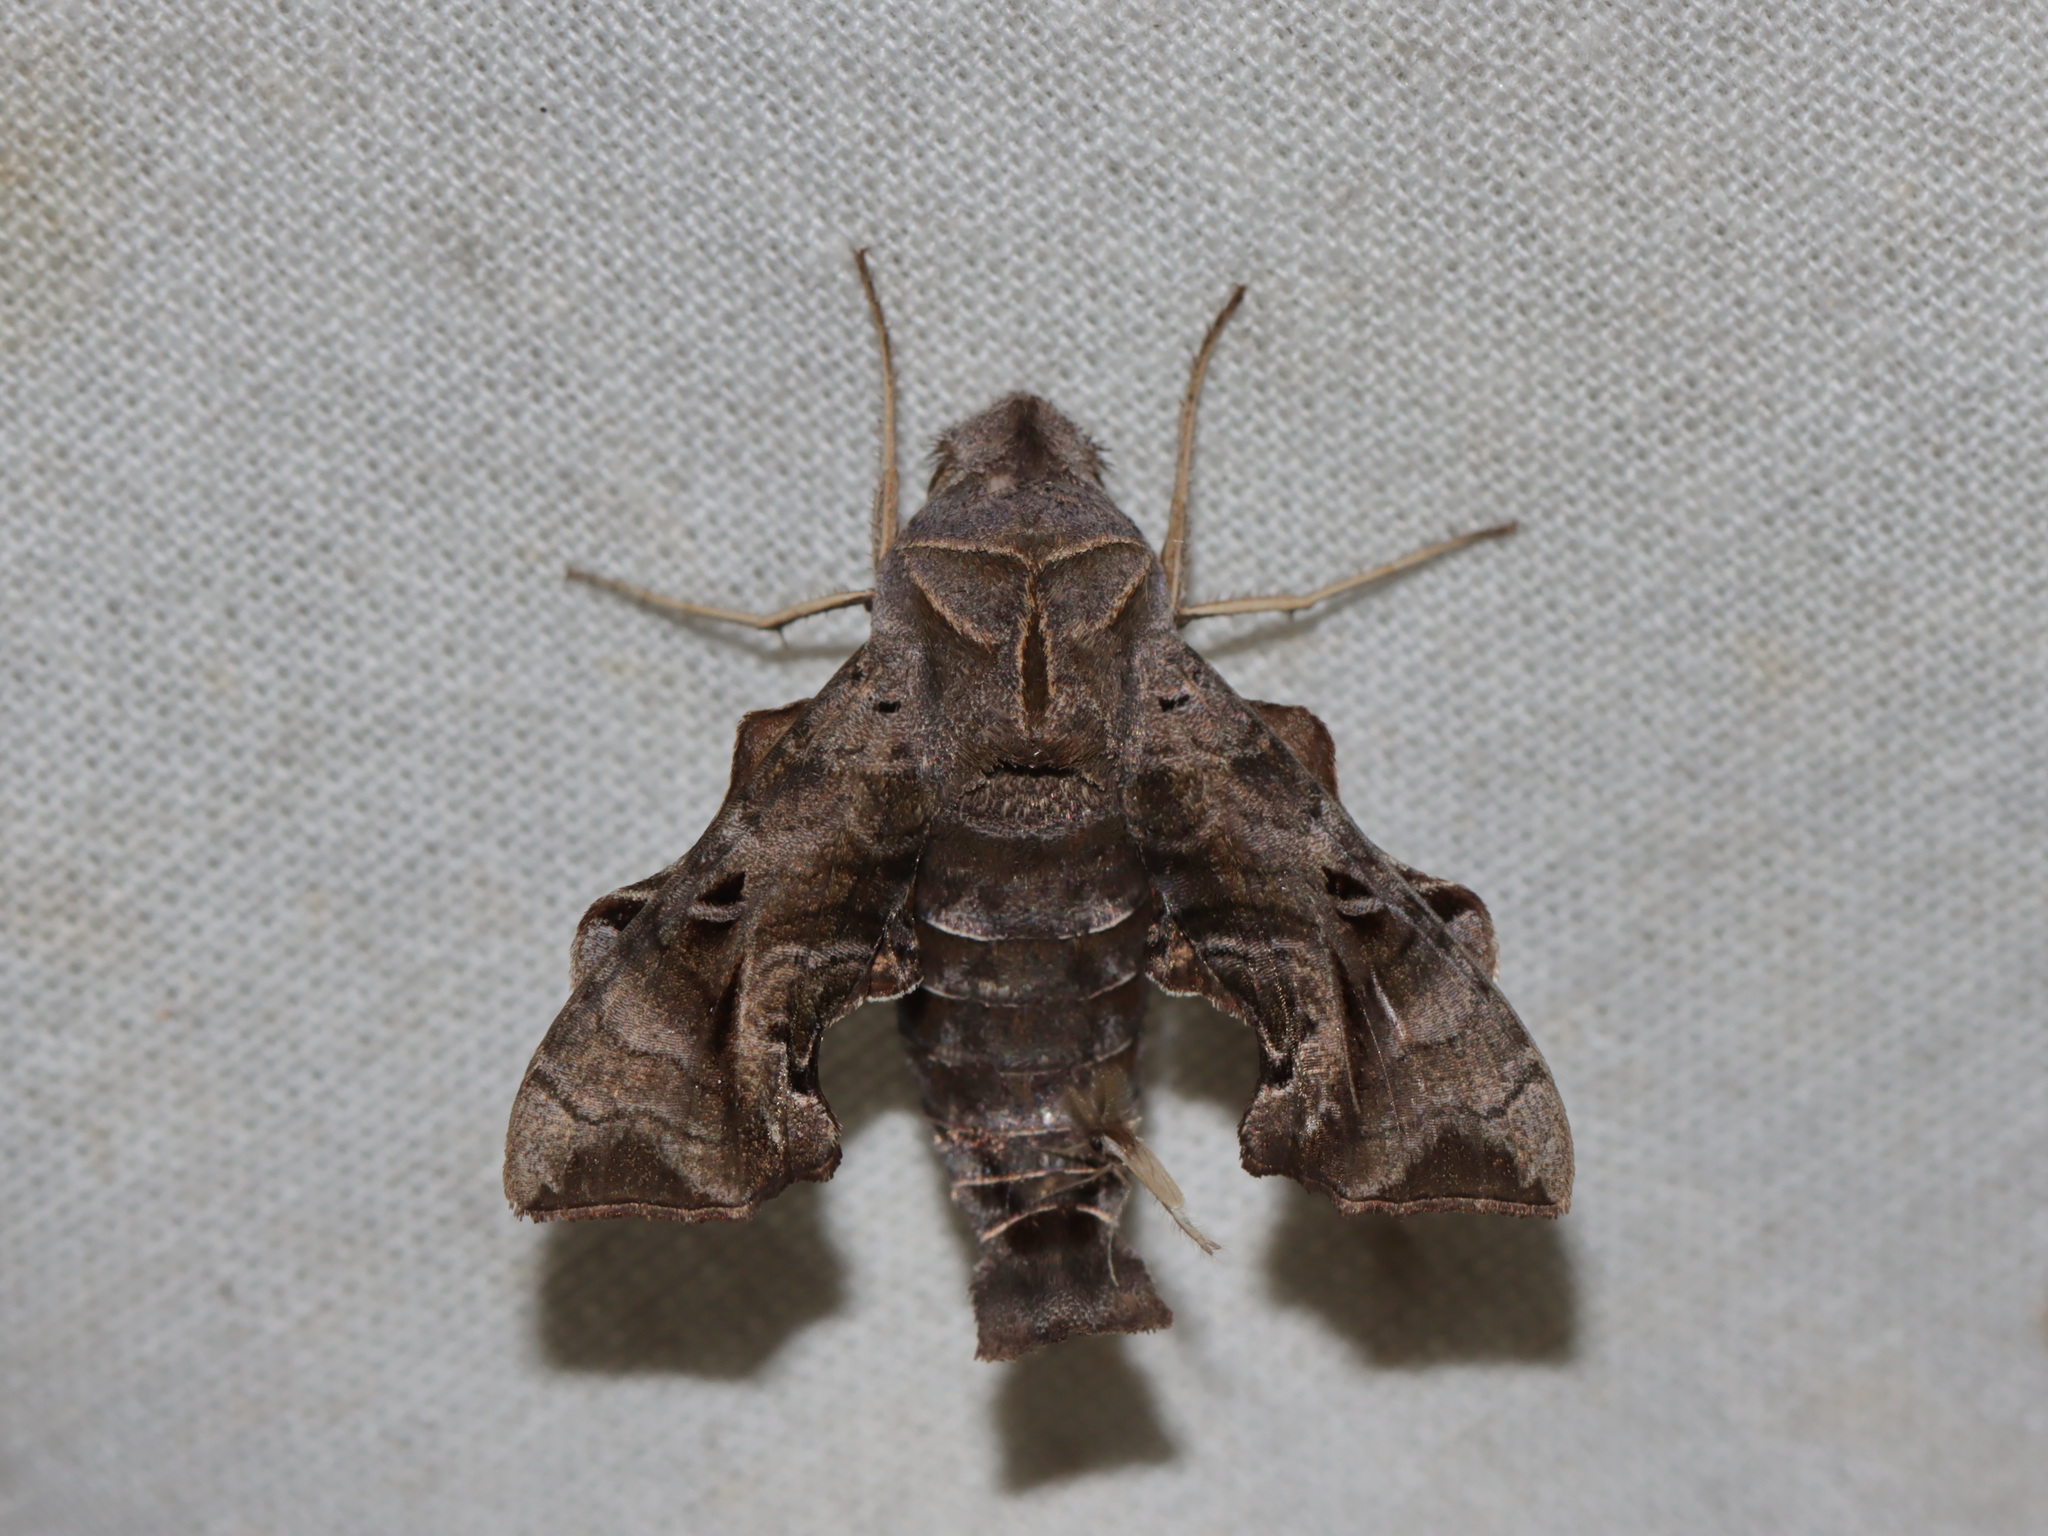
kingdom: Animalia
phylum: Arthropoda
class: Insecta
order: Lepidoptera
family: Sphingidae
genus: Neogurelca
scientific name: Neogurelca hyas
